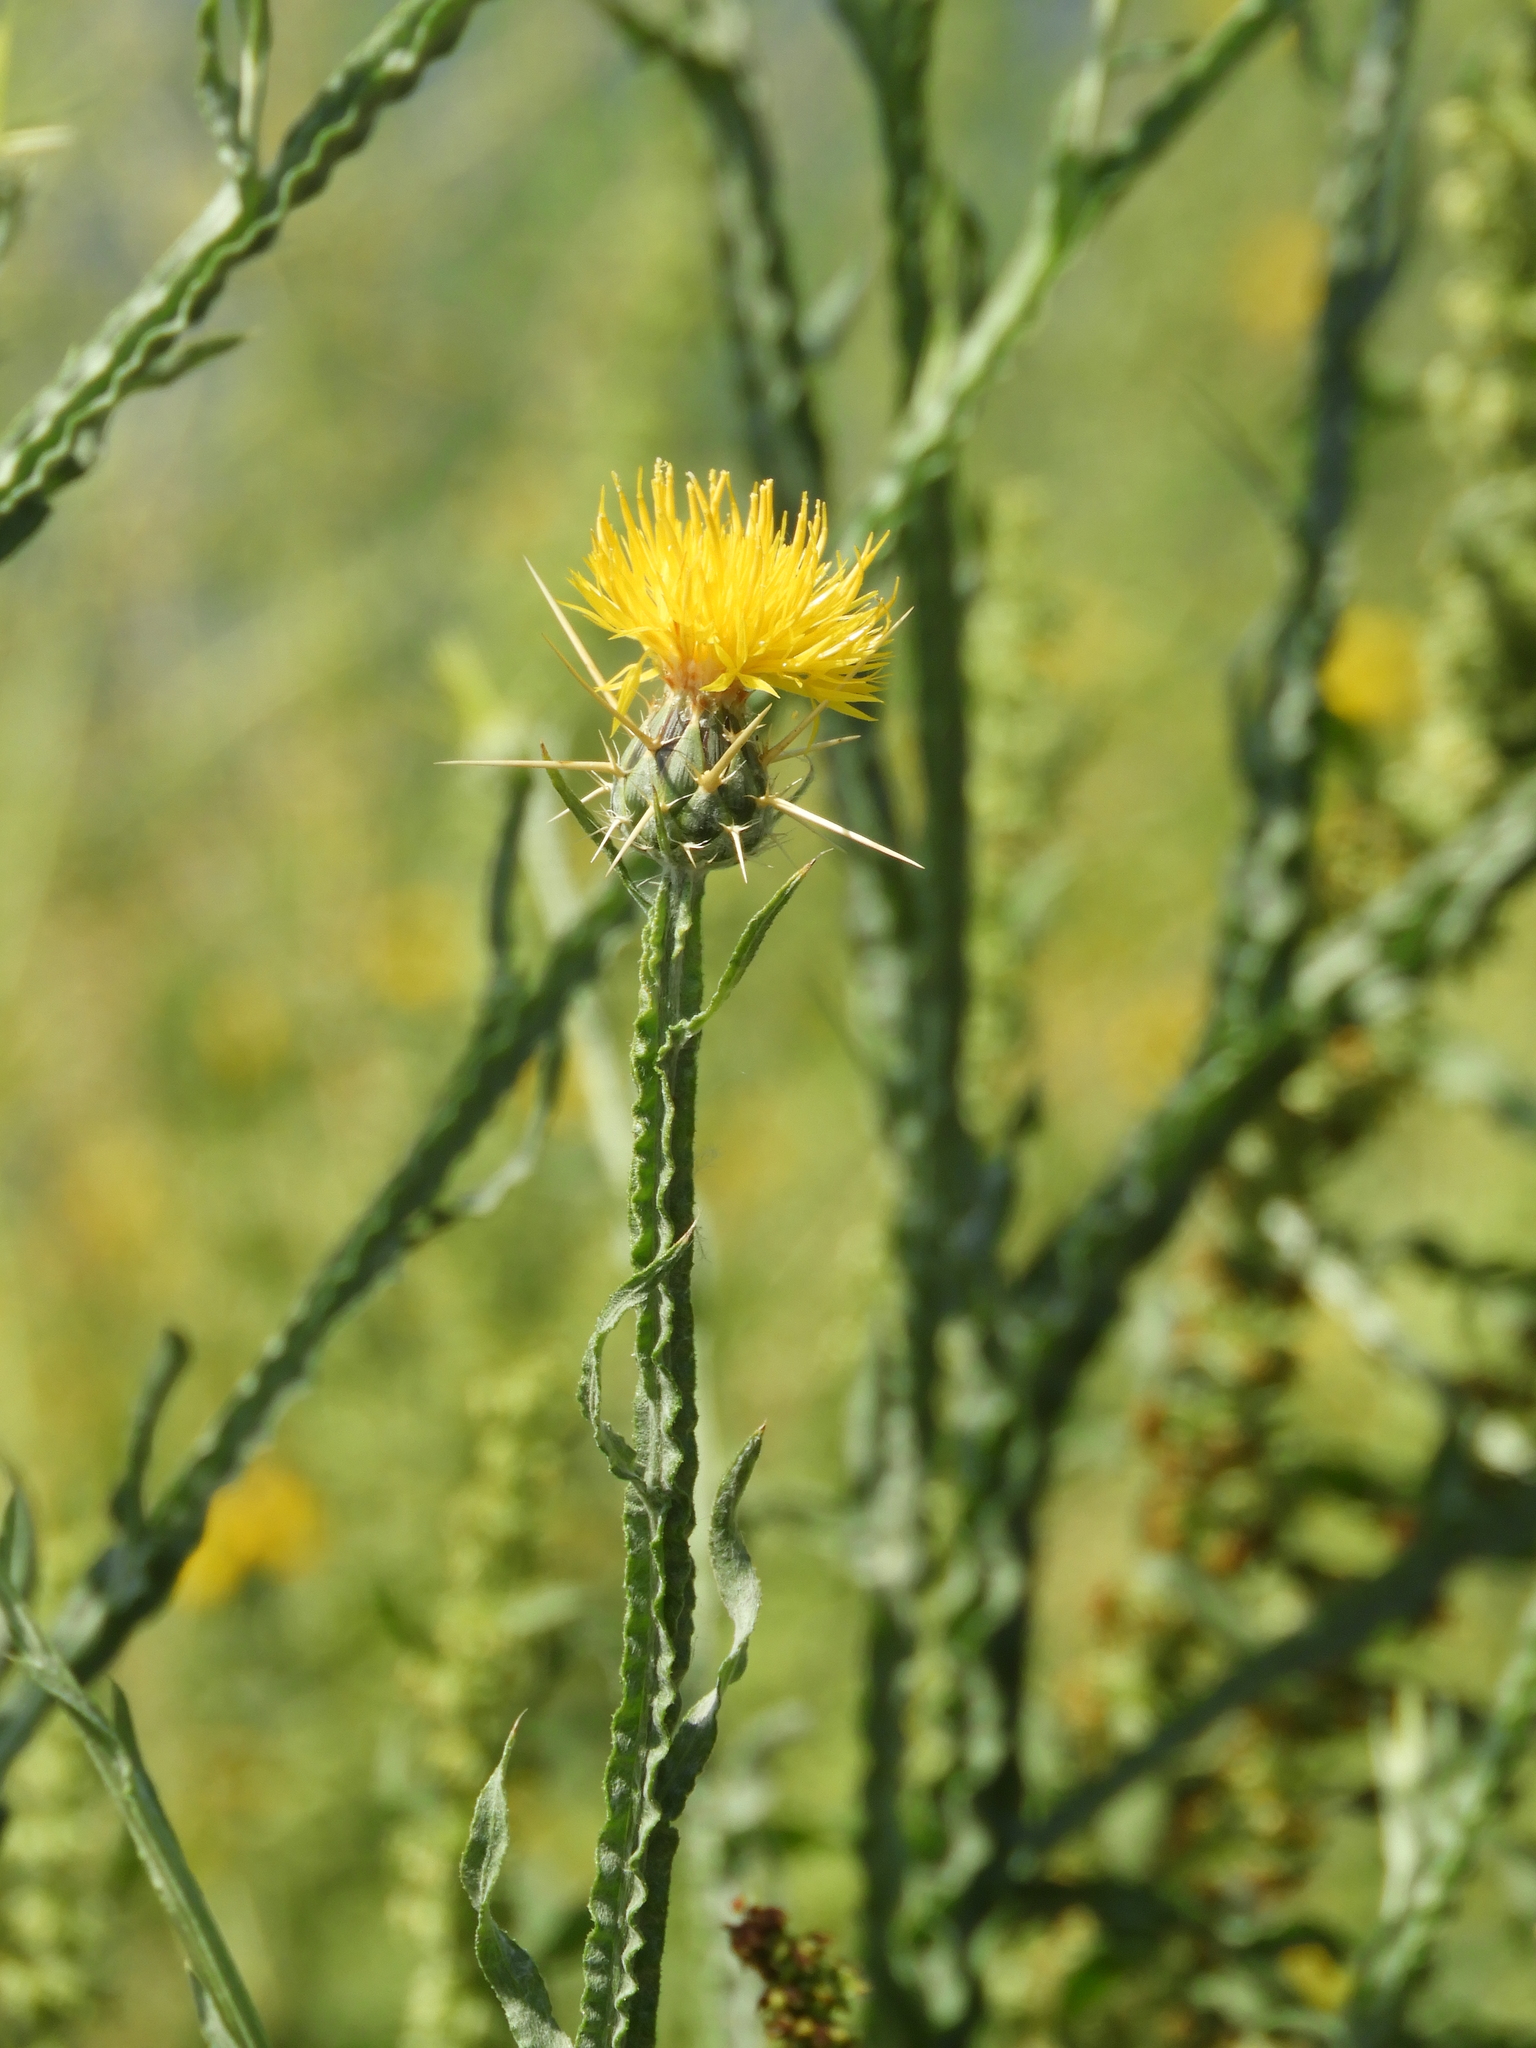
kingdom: Plantae
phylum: Tracheophyta
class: Magnoliopsida
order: Asterales
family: Asteraceae
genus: Centaurea
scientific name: Centaurea solstitialis
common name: Yellow star-thistle
